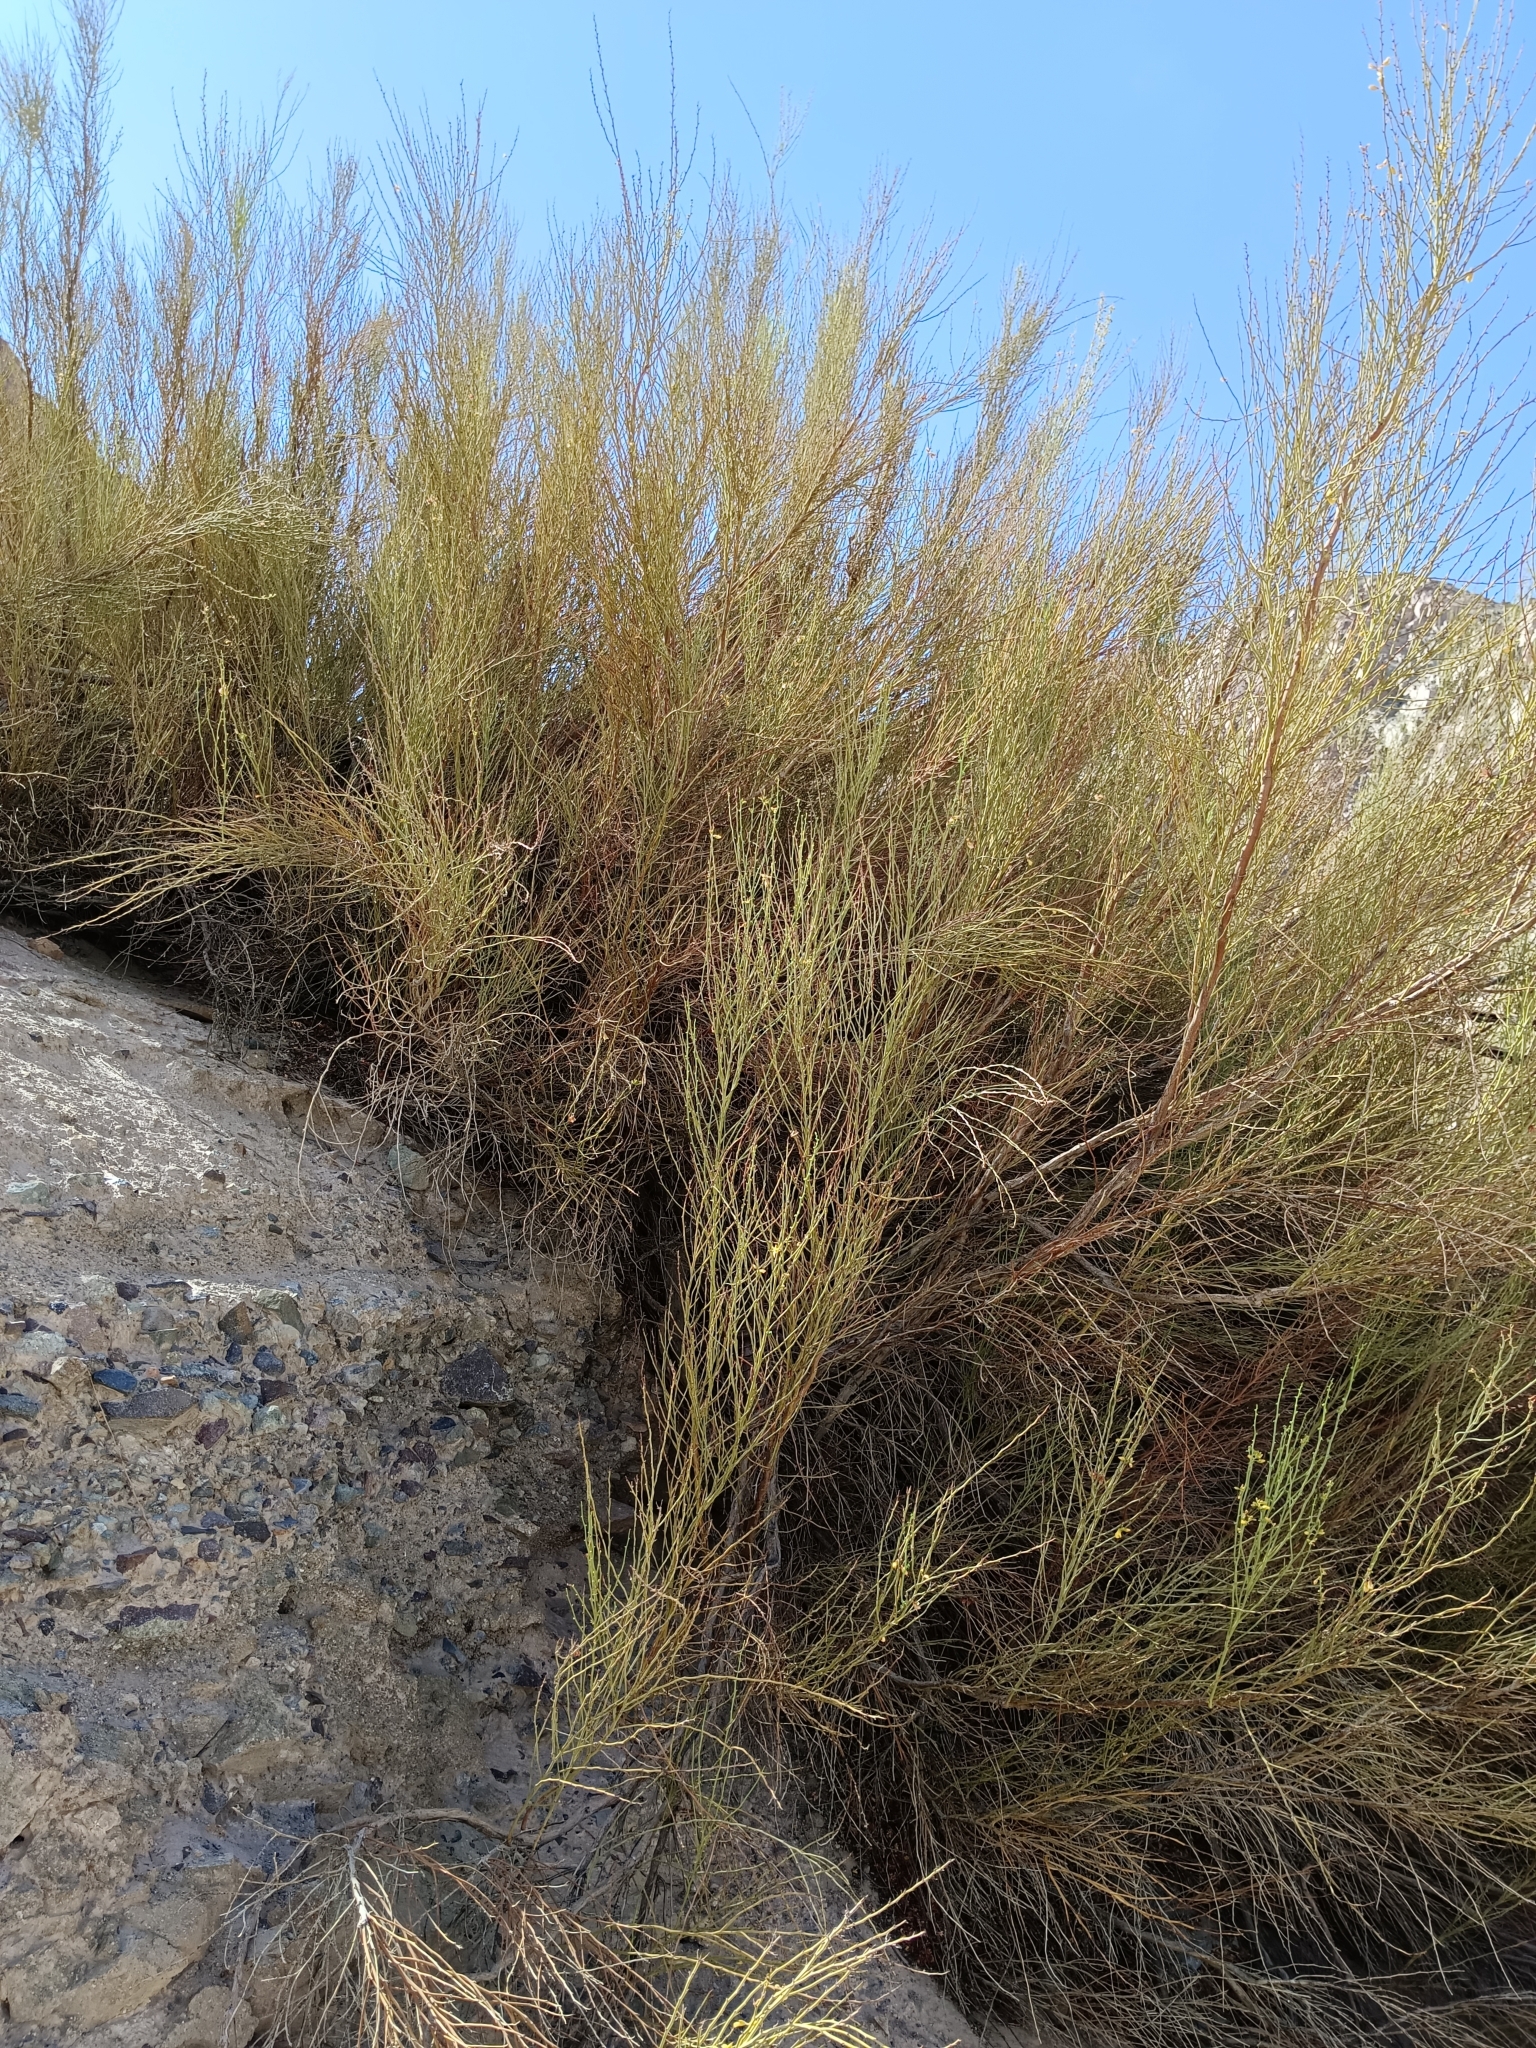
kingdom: Plantae
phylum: Tracheophyta
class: Magnoliopsida
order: Fabales
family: Fabaceae
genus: Hoffmannseggia
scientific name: Hoffmannseggia aphylla
